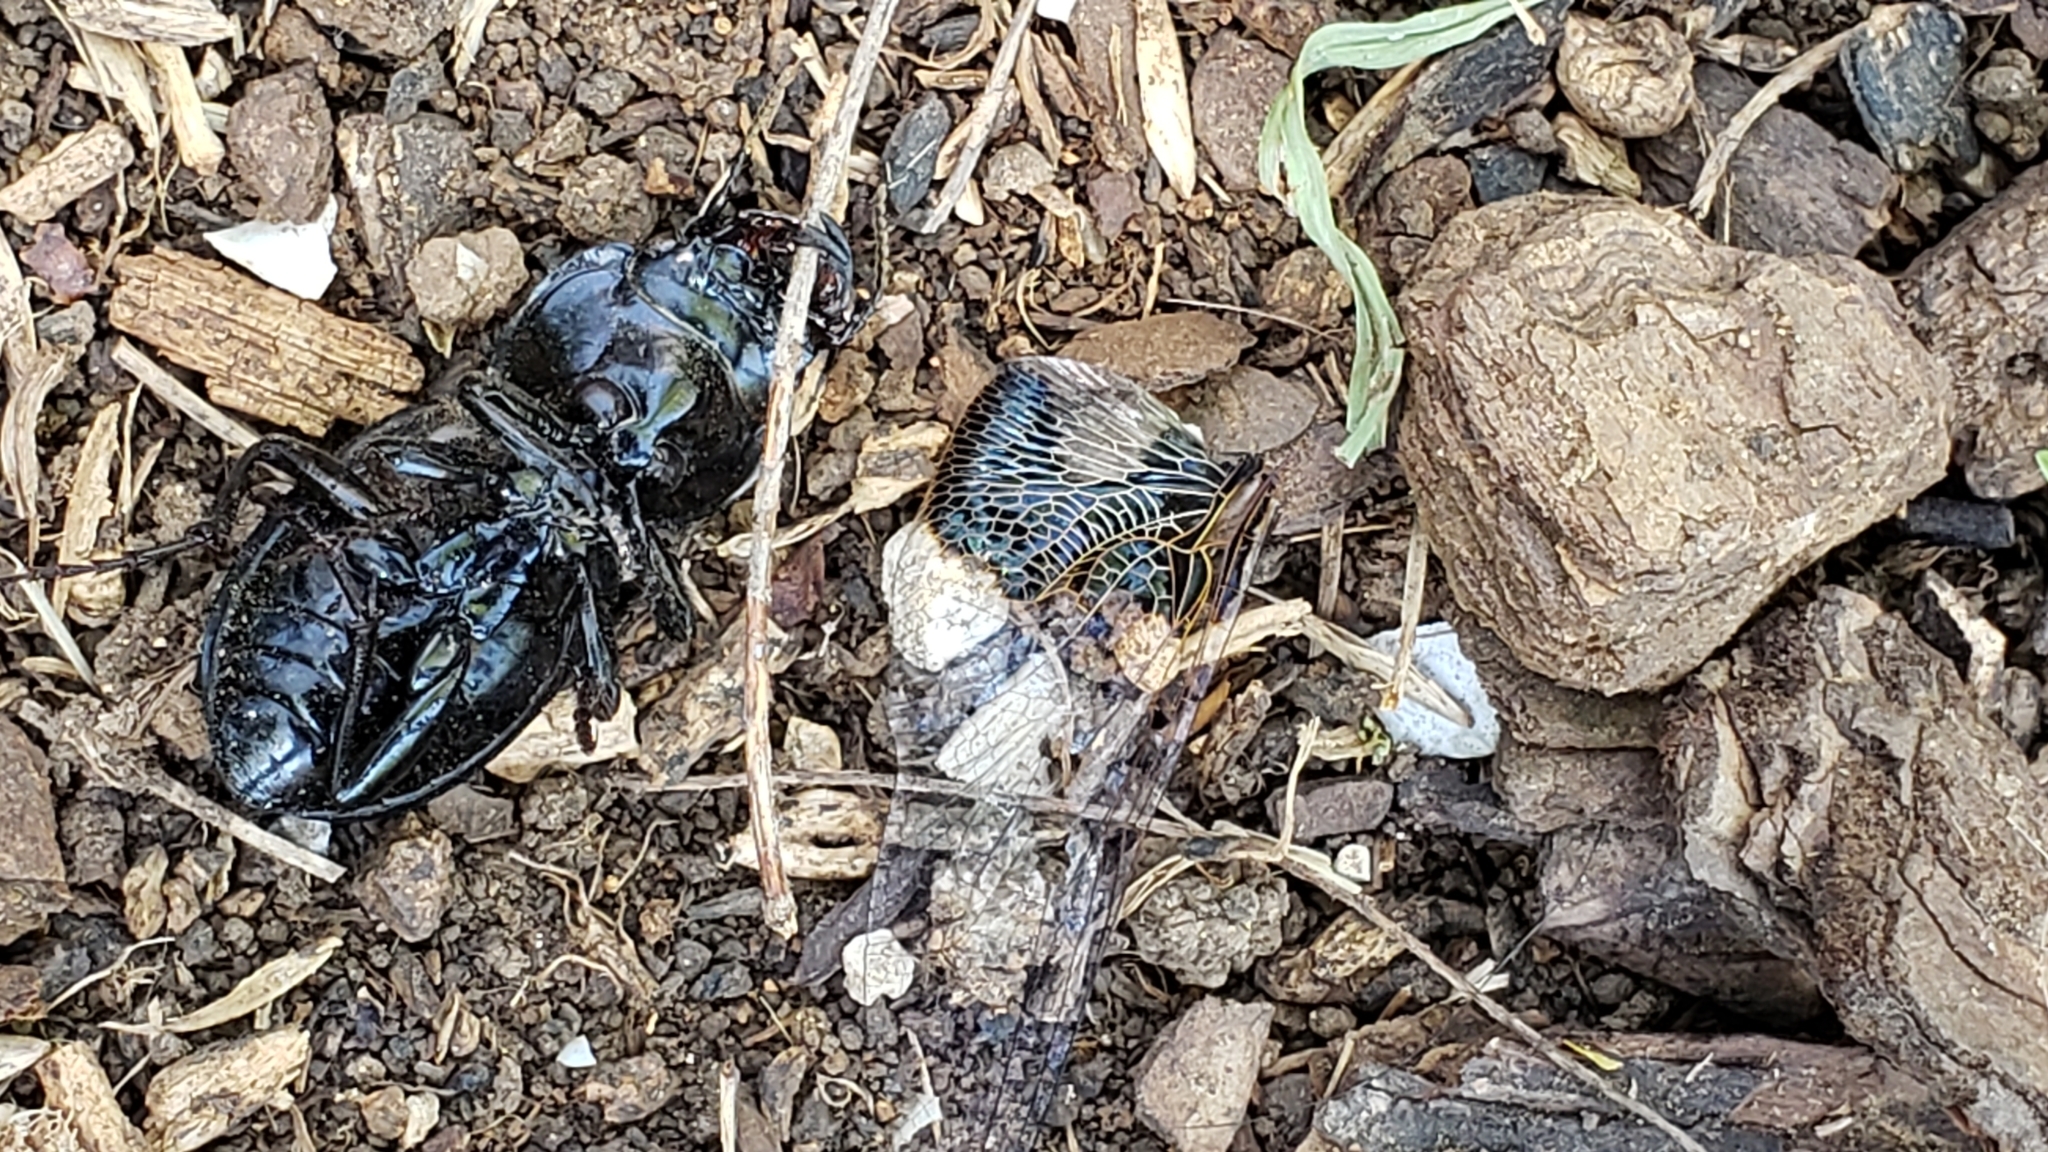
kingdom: Animalia
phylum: Arthropoda
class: Insecta
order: Coleoptera
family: Carabidae
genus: Pasimachus
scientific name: Pasimachus elongatus
